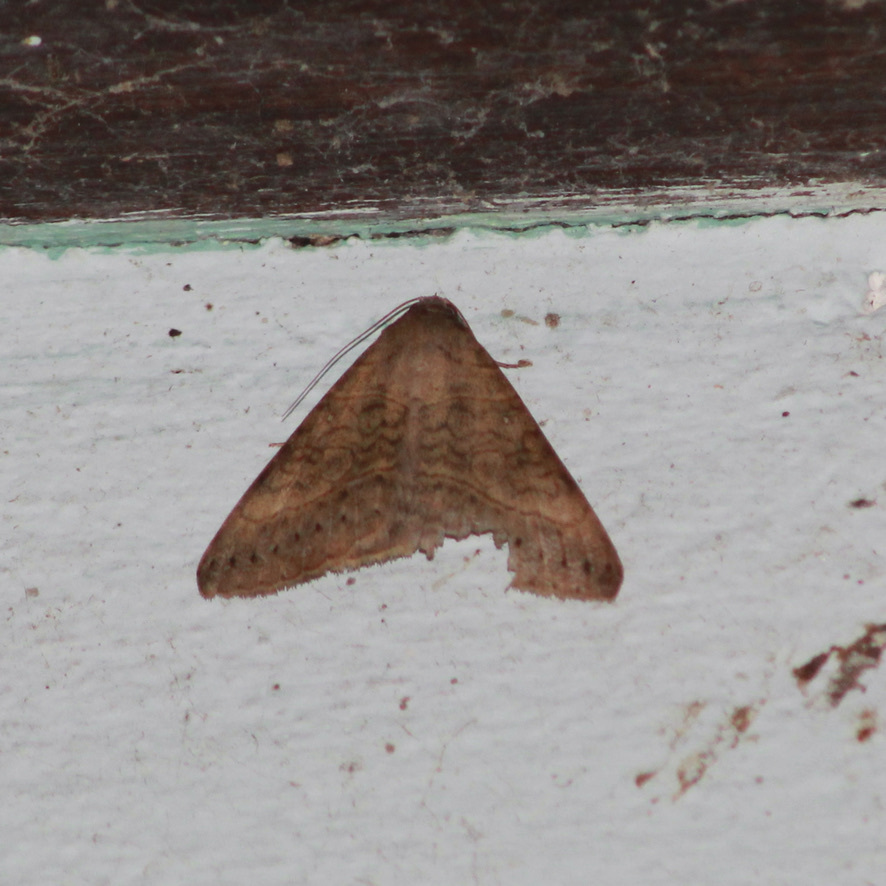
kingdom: Animalia
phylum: Arthropoda
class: Insecta
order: Lepidoptera
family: Erebidae
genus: Mocis
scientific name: Mocis latipes
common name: Striped grass looper
